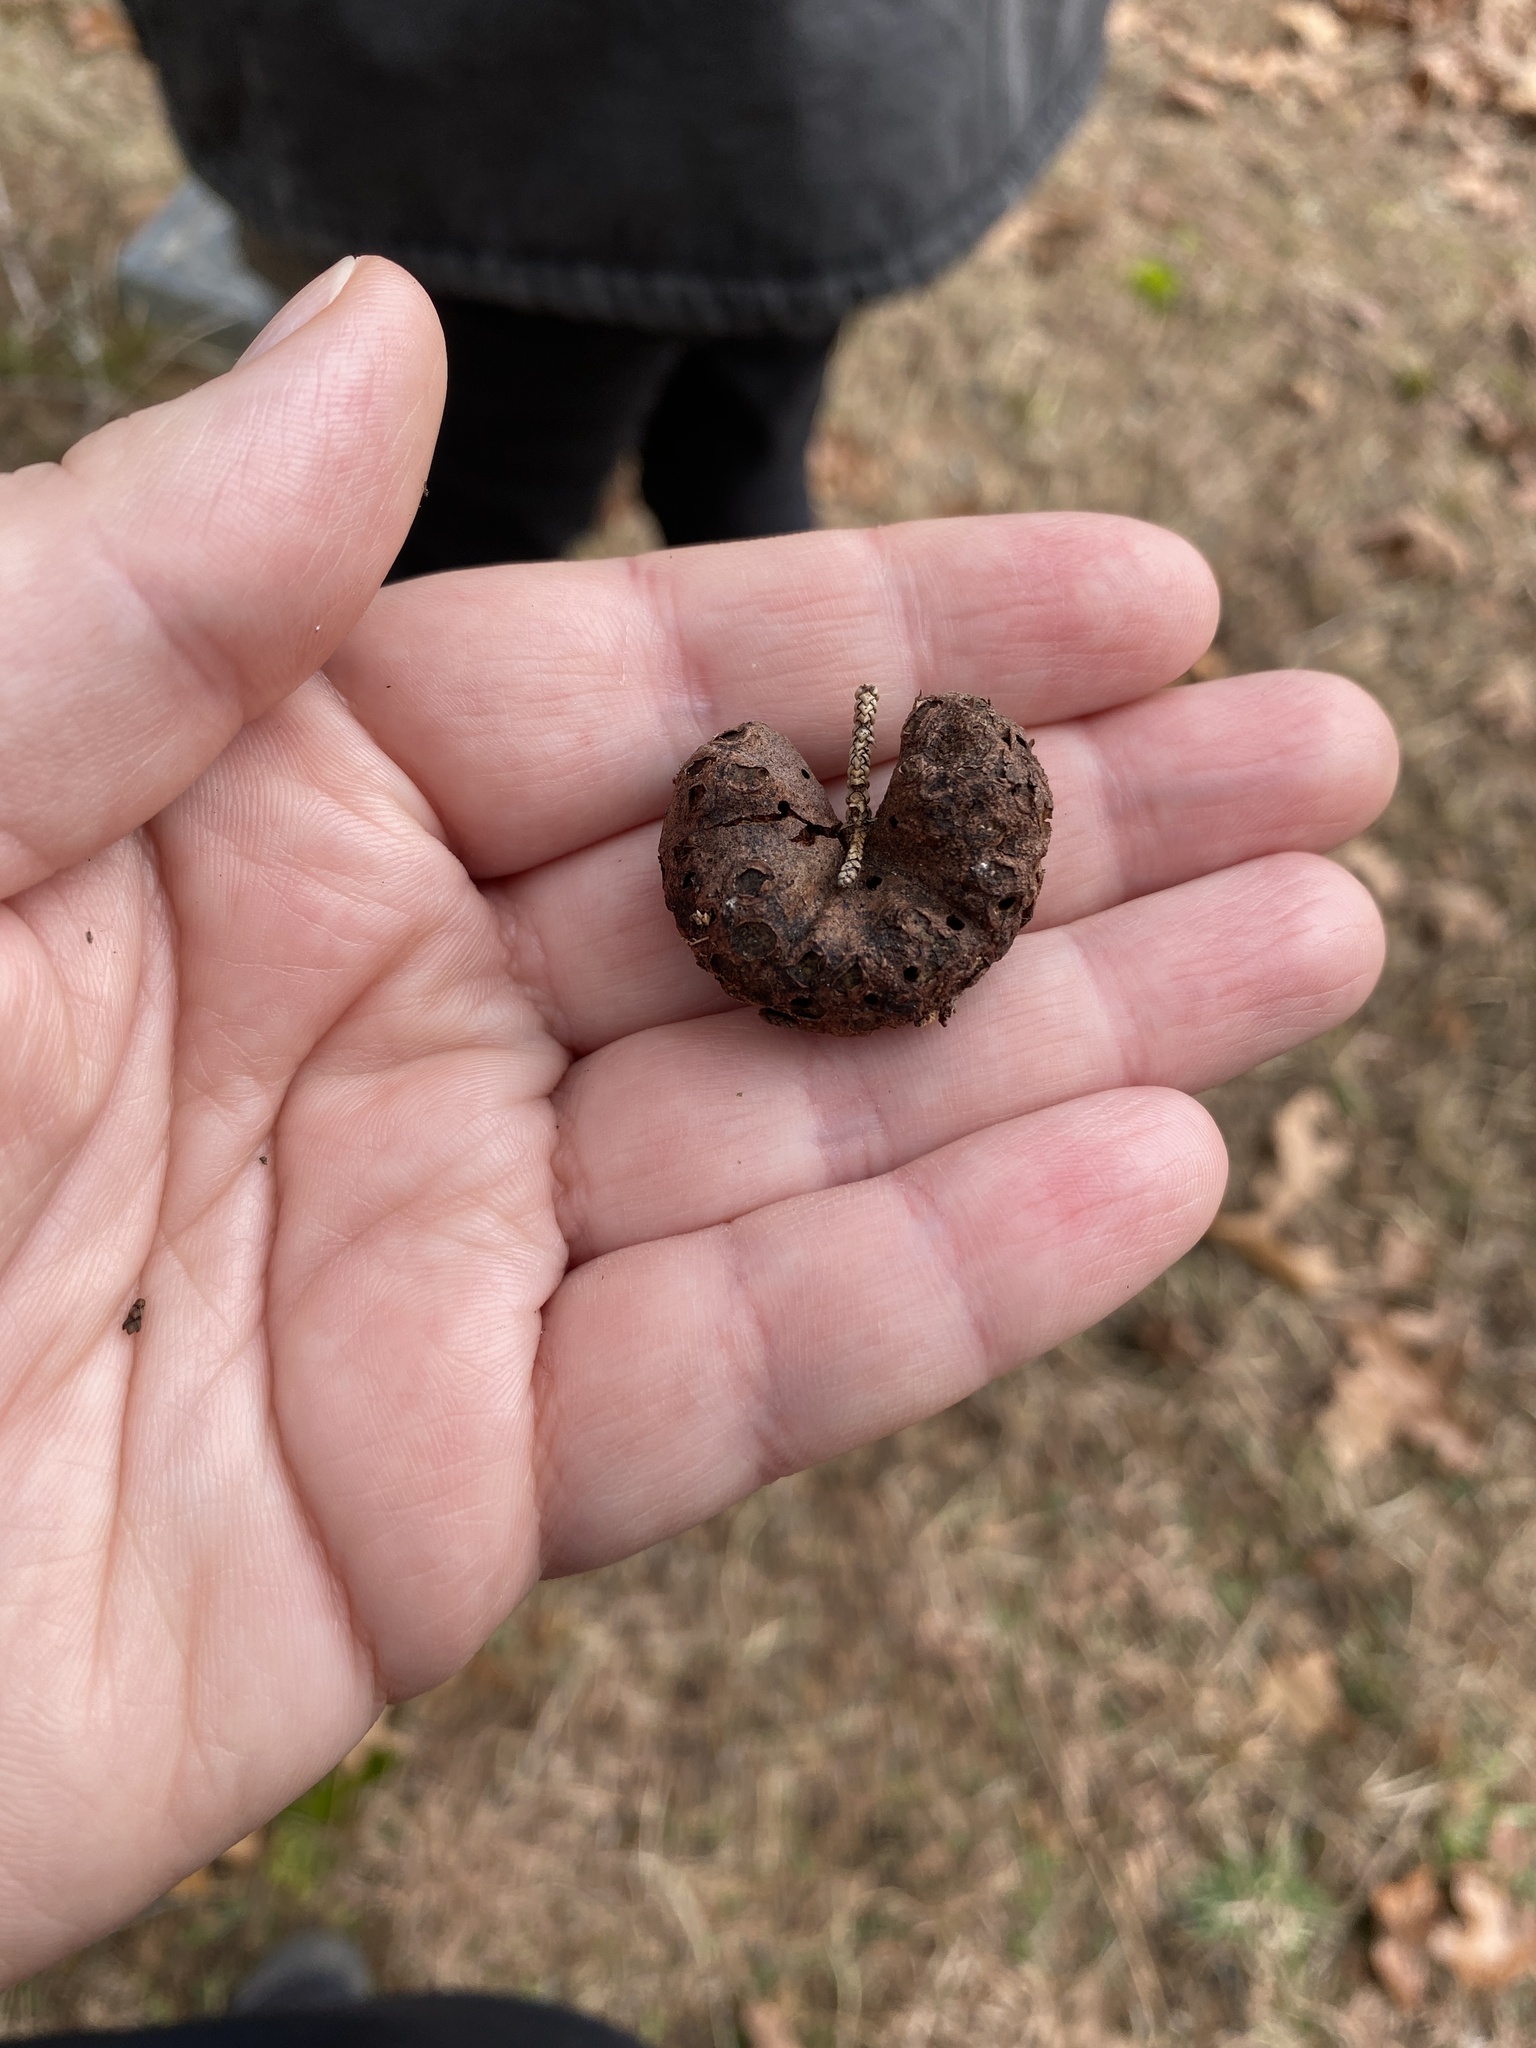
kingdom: Fungi
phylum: Basidiomycota
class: Pucciniomycetes
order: Pucciniales
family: Gymnosporangiaceae
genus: Gymnosporangium
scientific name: Gymnosporangium juniperi-virginianae
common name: Juniper-apple rust
